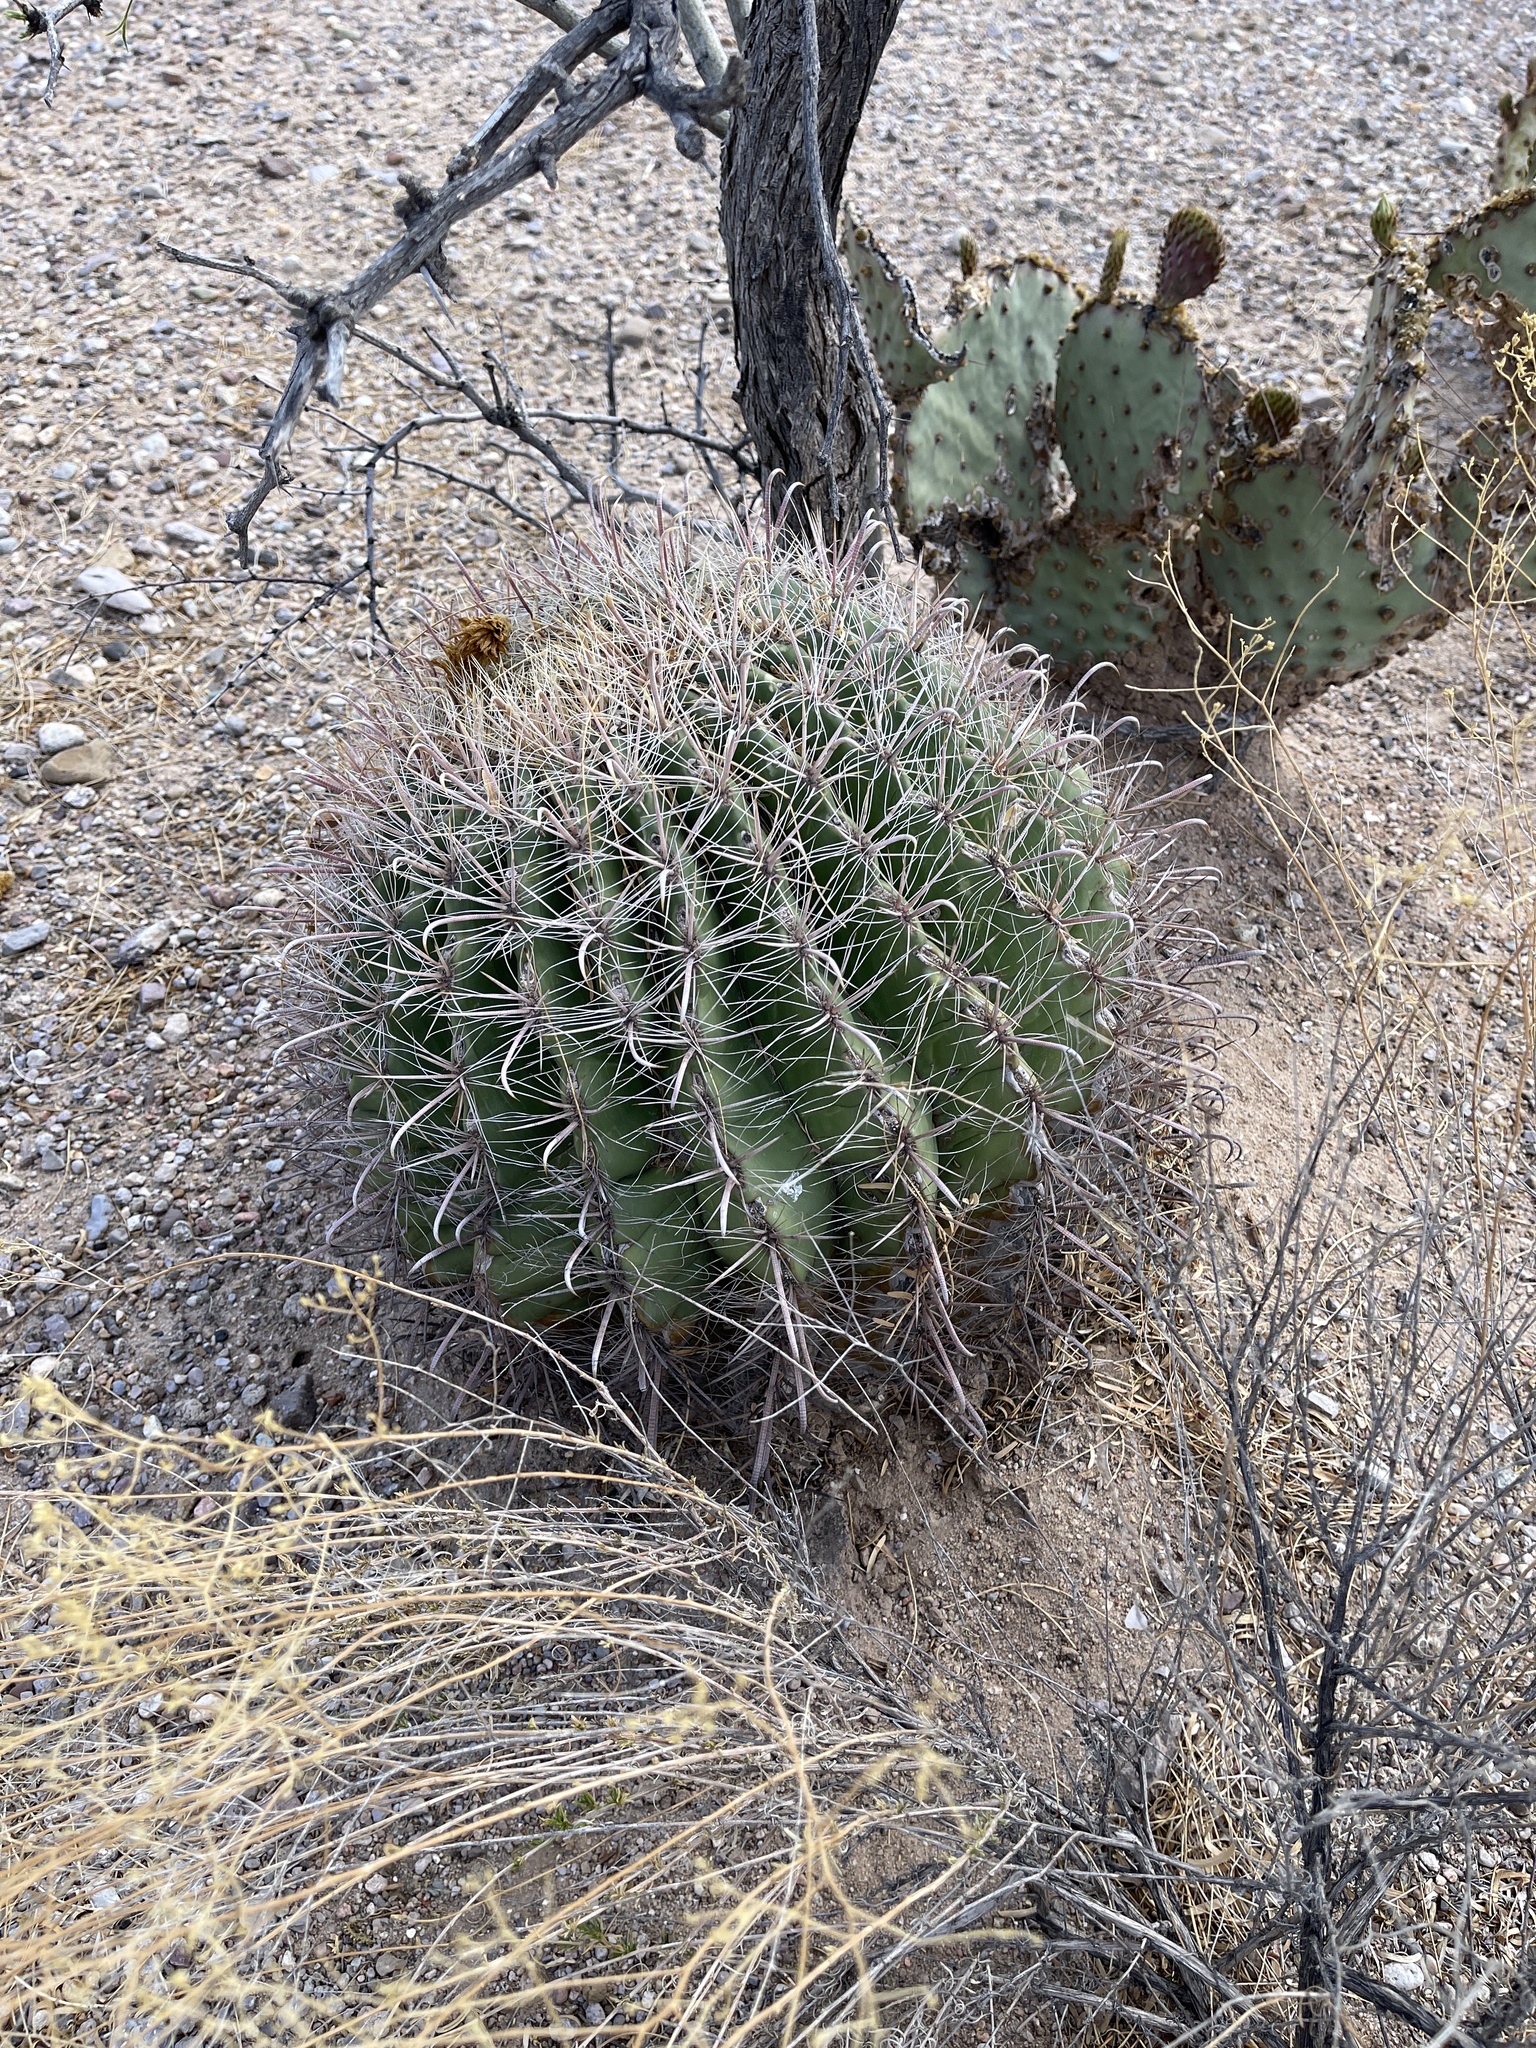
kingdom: Plantae
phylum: Tracheophyta
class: Magnoliopsida
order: Caryophyllales
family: Cactaceae
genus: Ferocactus
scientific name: Ferocactus wislizeni
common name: Candy barrel cactus
